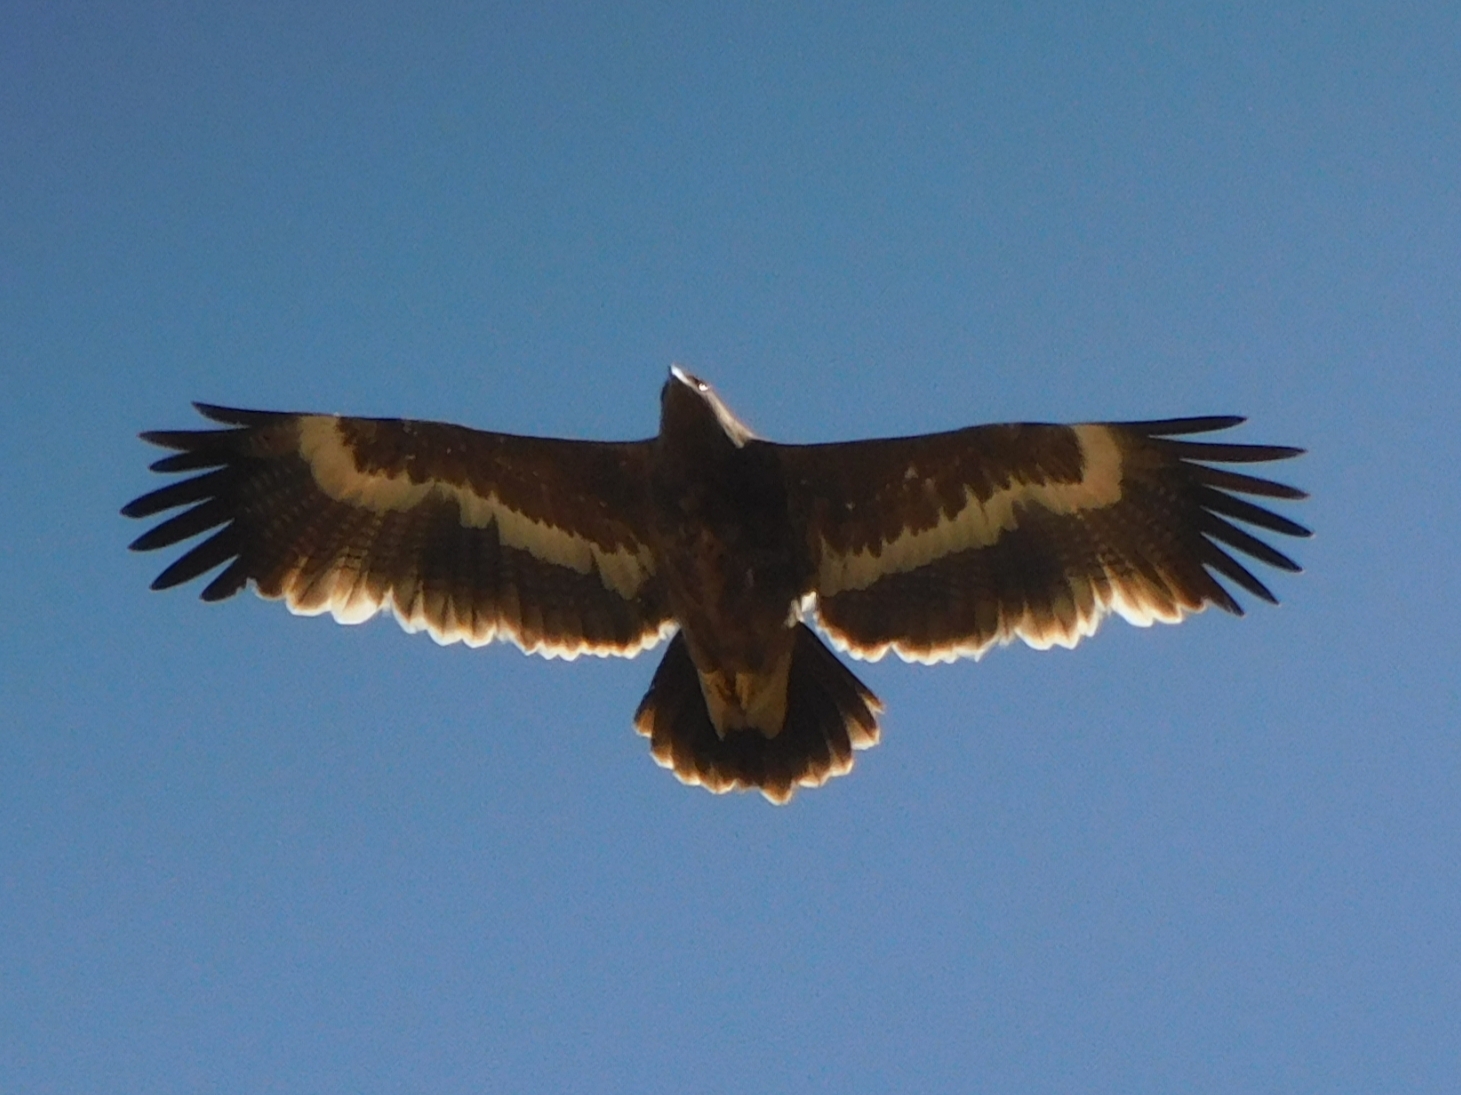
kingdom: Animalia
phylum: Chordata
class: Aves
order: Accipitriformes
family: Accipitridae
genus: Aquila
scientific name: Aquila nipalensis
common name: Steppe eagle
